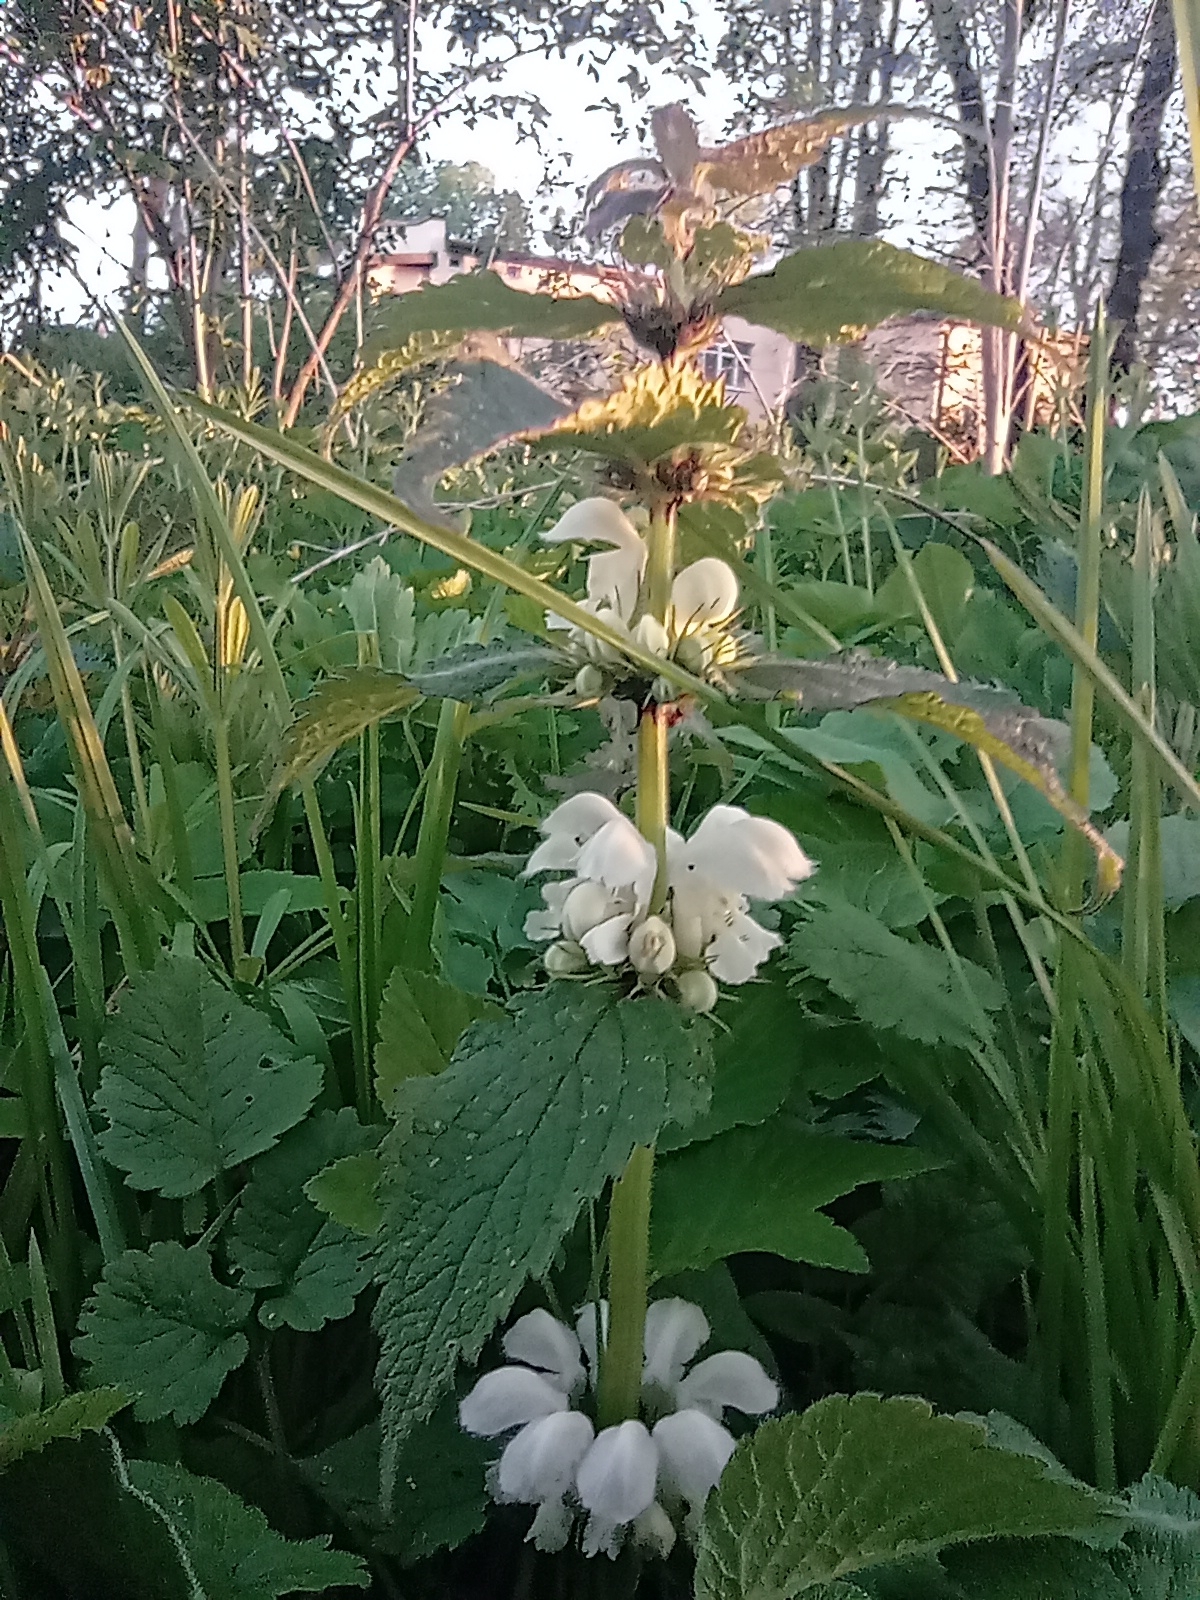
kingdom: Plantae
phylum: Tracheophyta
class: Magnoliopsida
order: Lamiales
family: Lamiaceae
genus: Lamium
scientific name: Lamium album
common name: White dead-nettle
